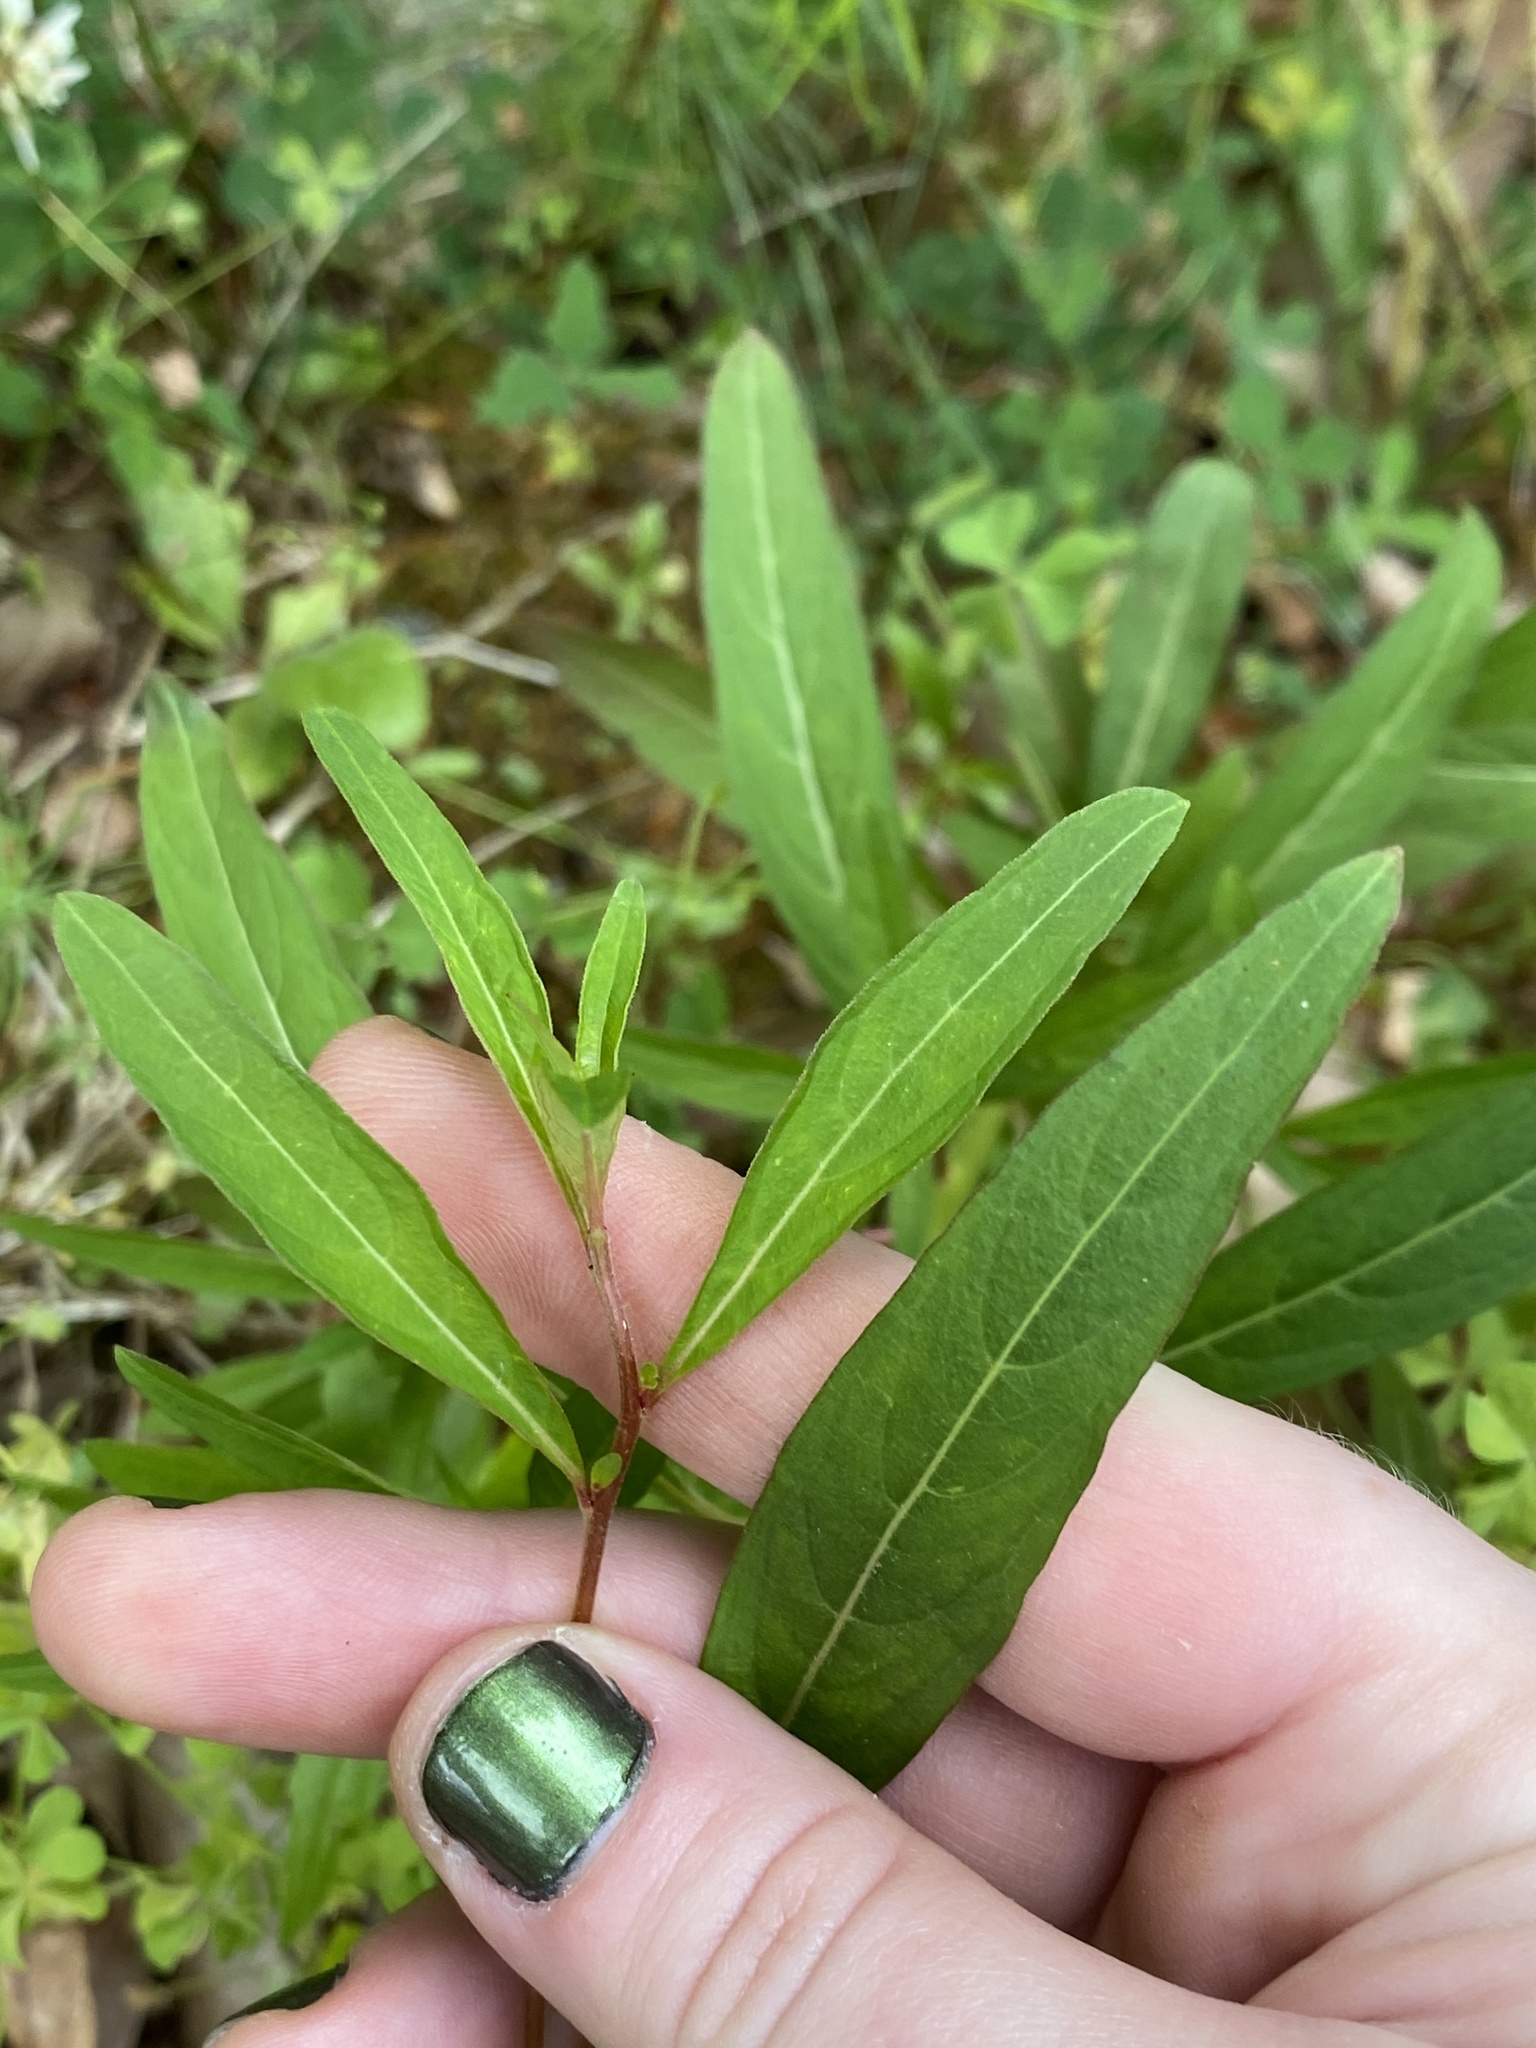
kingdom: Plantae
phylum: Tracheophyta
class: Magnoliopsida
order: Myrtales
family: Onagraceae
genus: Ludwigia
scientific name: Ludwigia alternifolia
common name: Rattlebox
